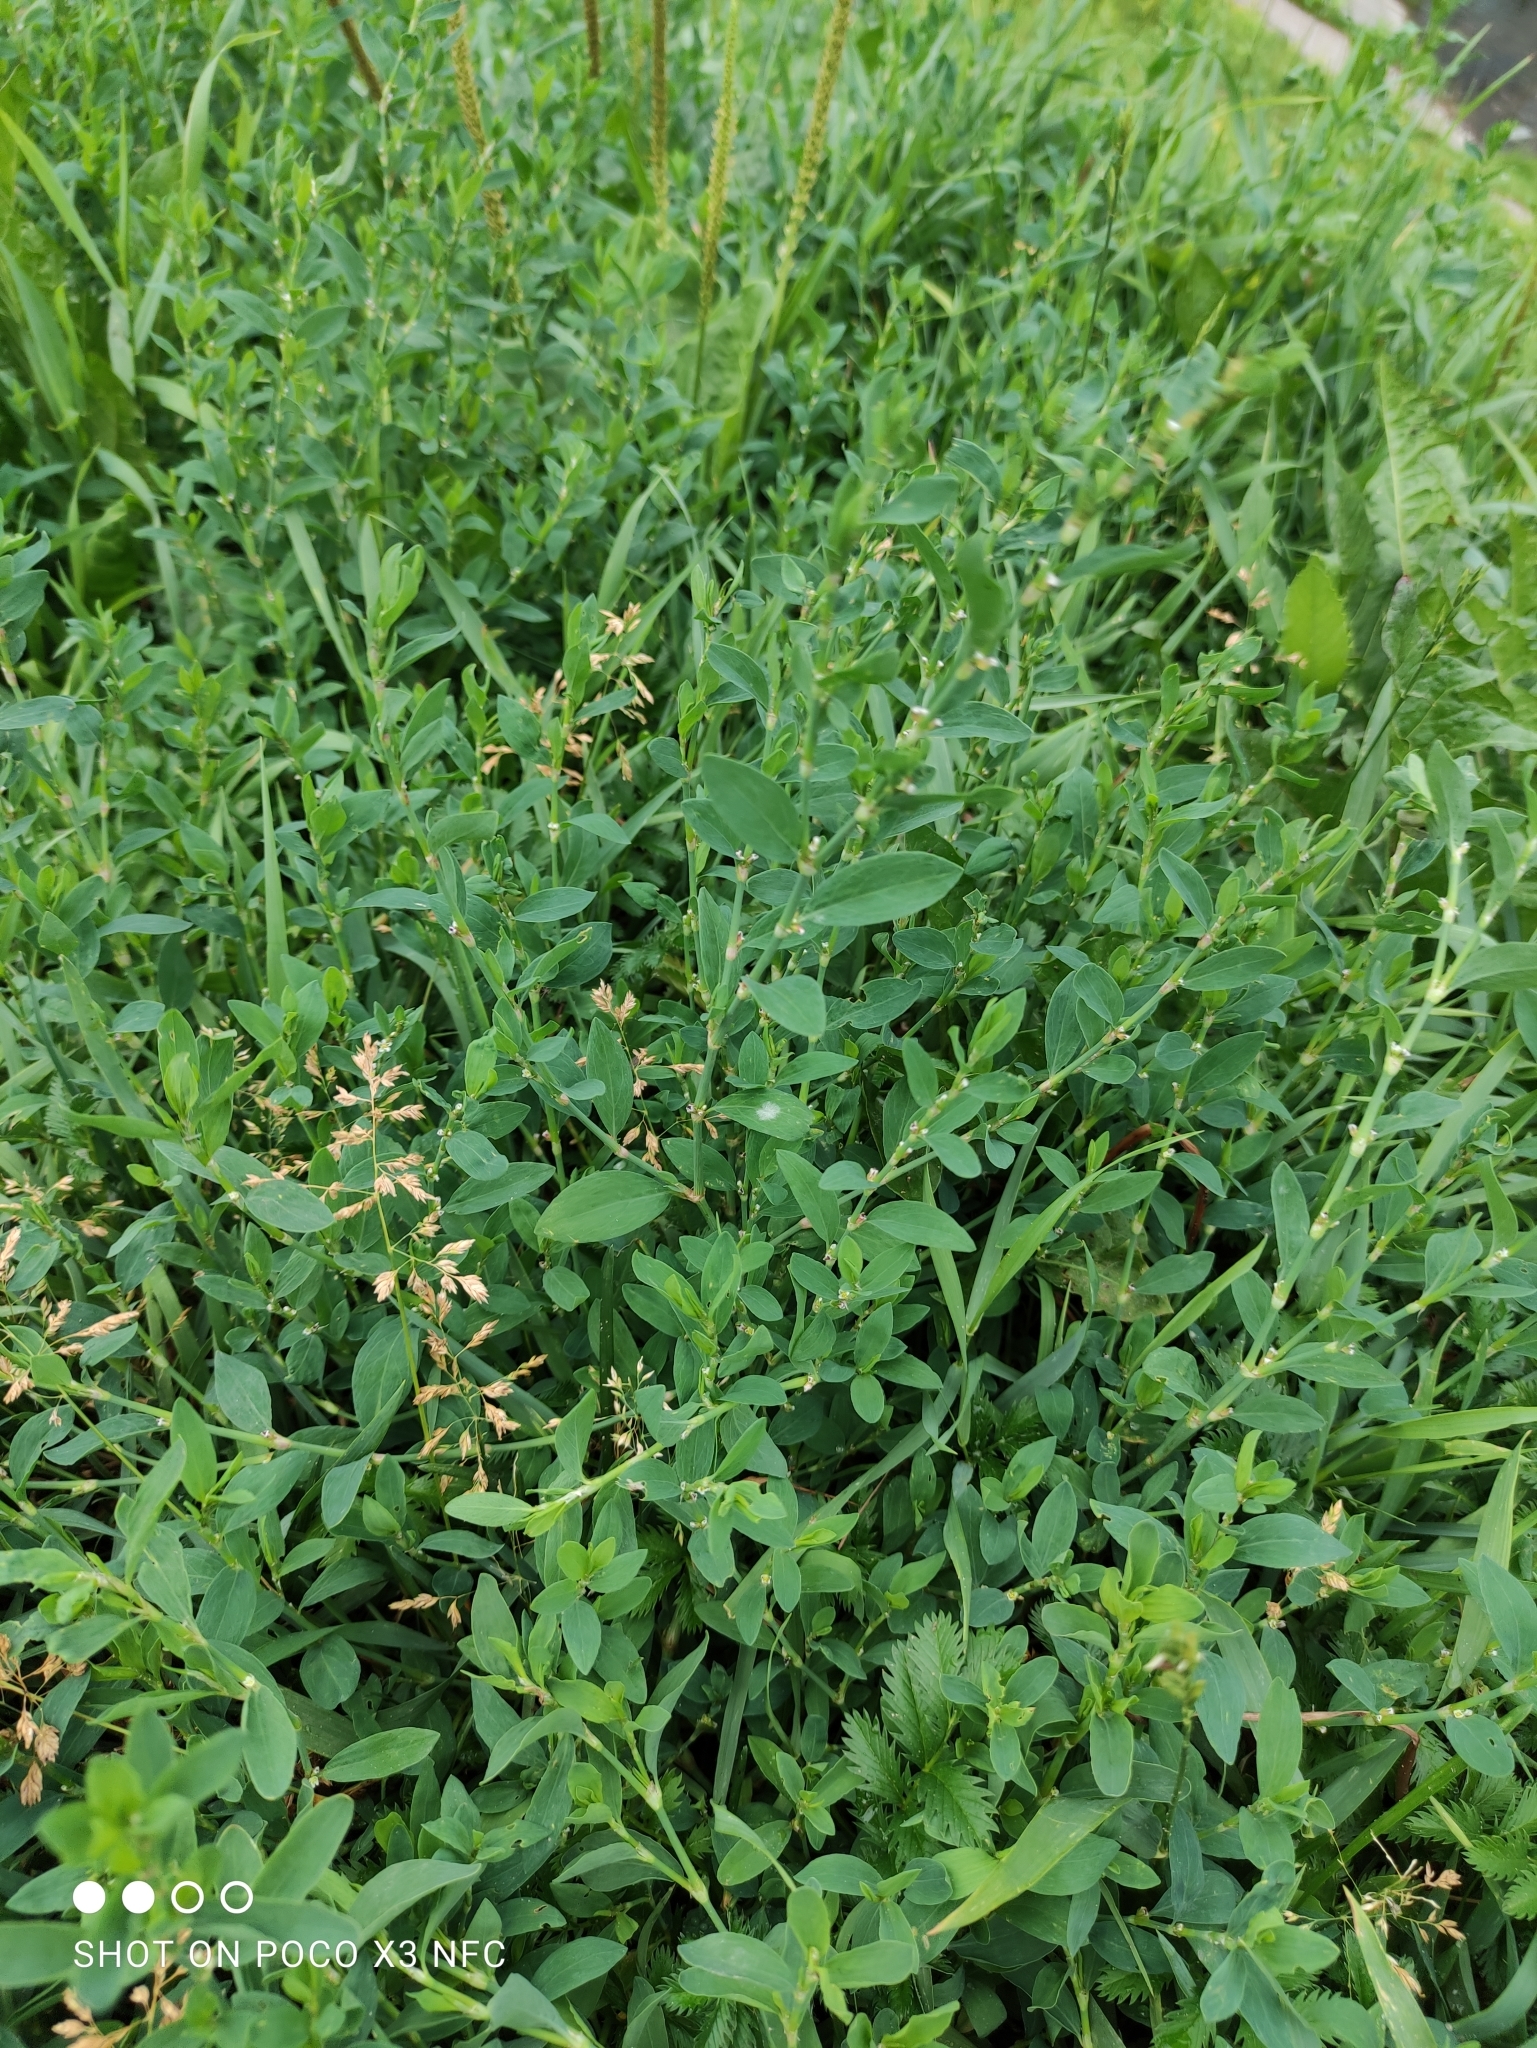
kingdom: Plantae
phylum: Tracheophyta
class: Magnoliopsida
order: Caryophyllales
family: Polygonaceae
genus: Polygonum
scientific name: Polygonum
